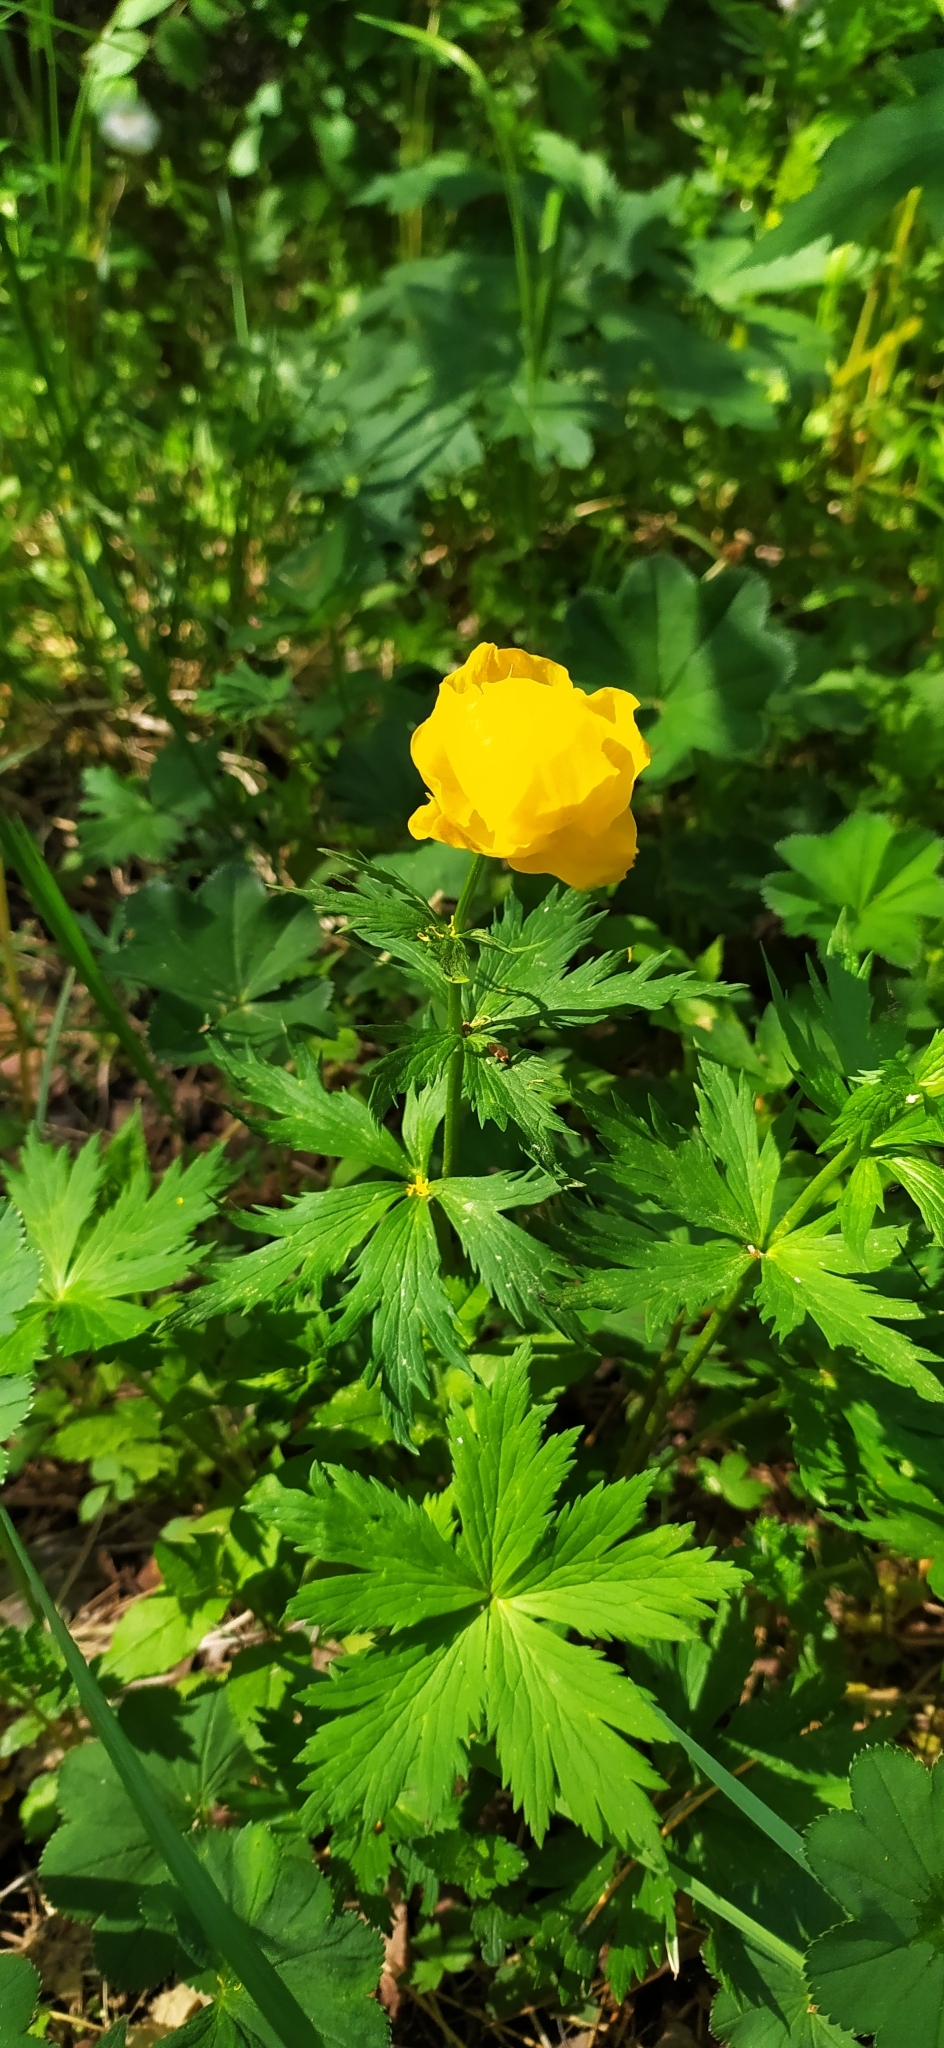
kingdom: Plantae
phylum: Tracheophyta
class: Magnoliopsida
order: Ranunculales
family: Ranunculaceae
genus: Trollius
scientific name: Trollius europaeus
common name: European globeflower
